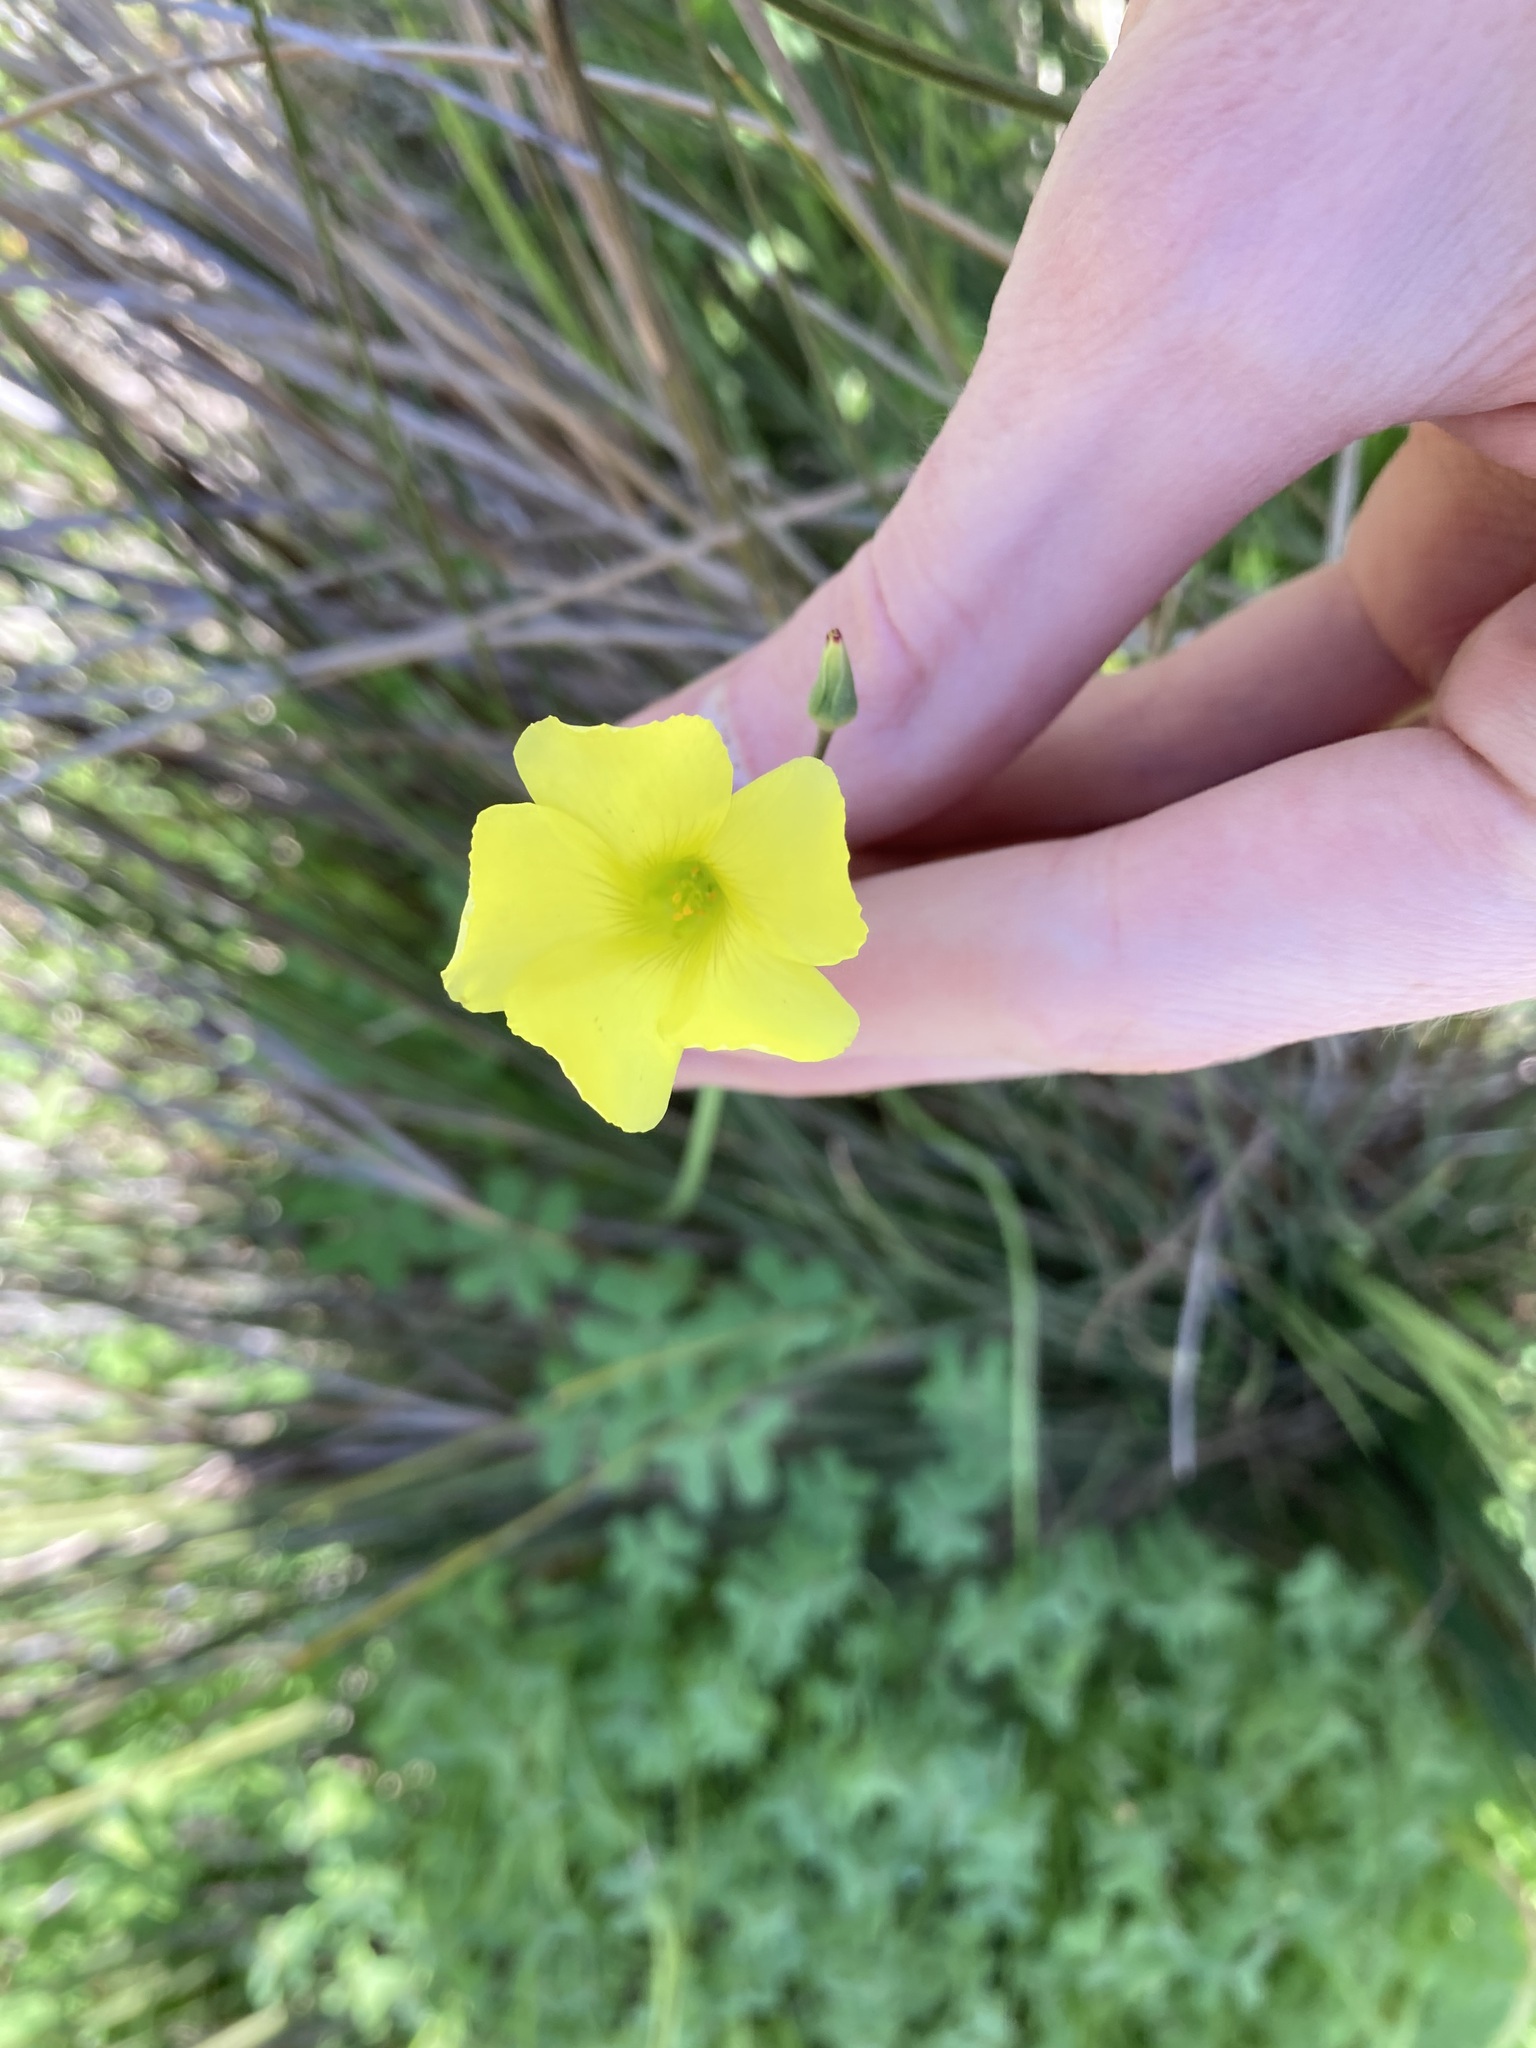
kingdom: Plantae
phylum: Tracheophyta
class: Magnoliopsida
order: Oxalidales
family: Oxalidaceae
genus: Oxalis
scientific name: Oxalis pes-caprae
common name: Bermuda-buttercup
